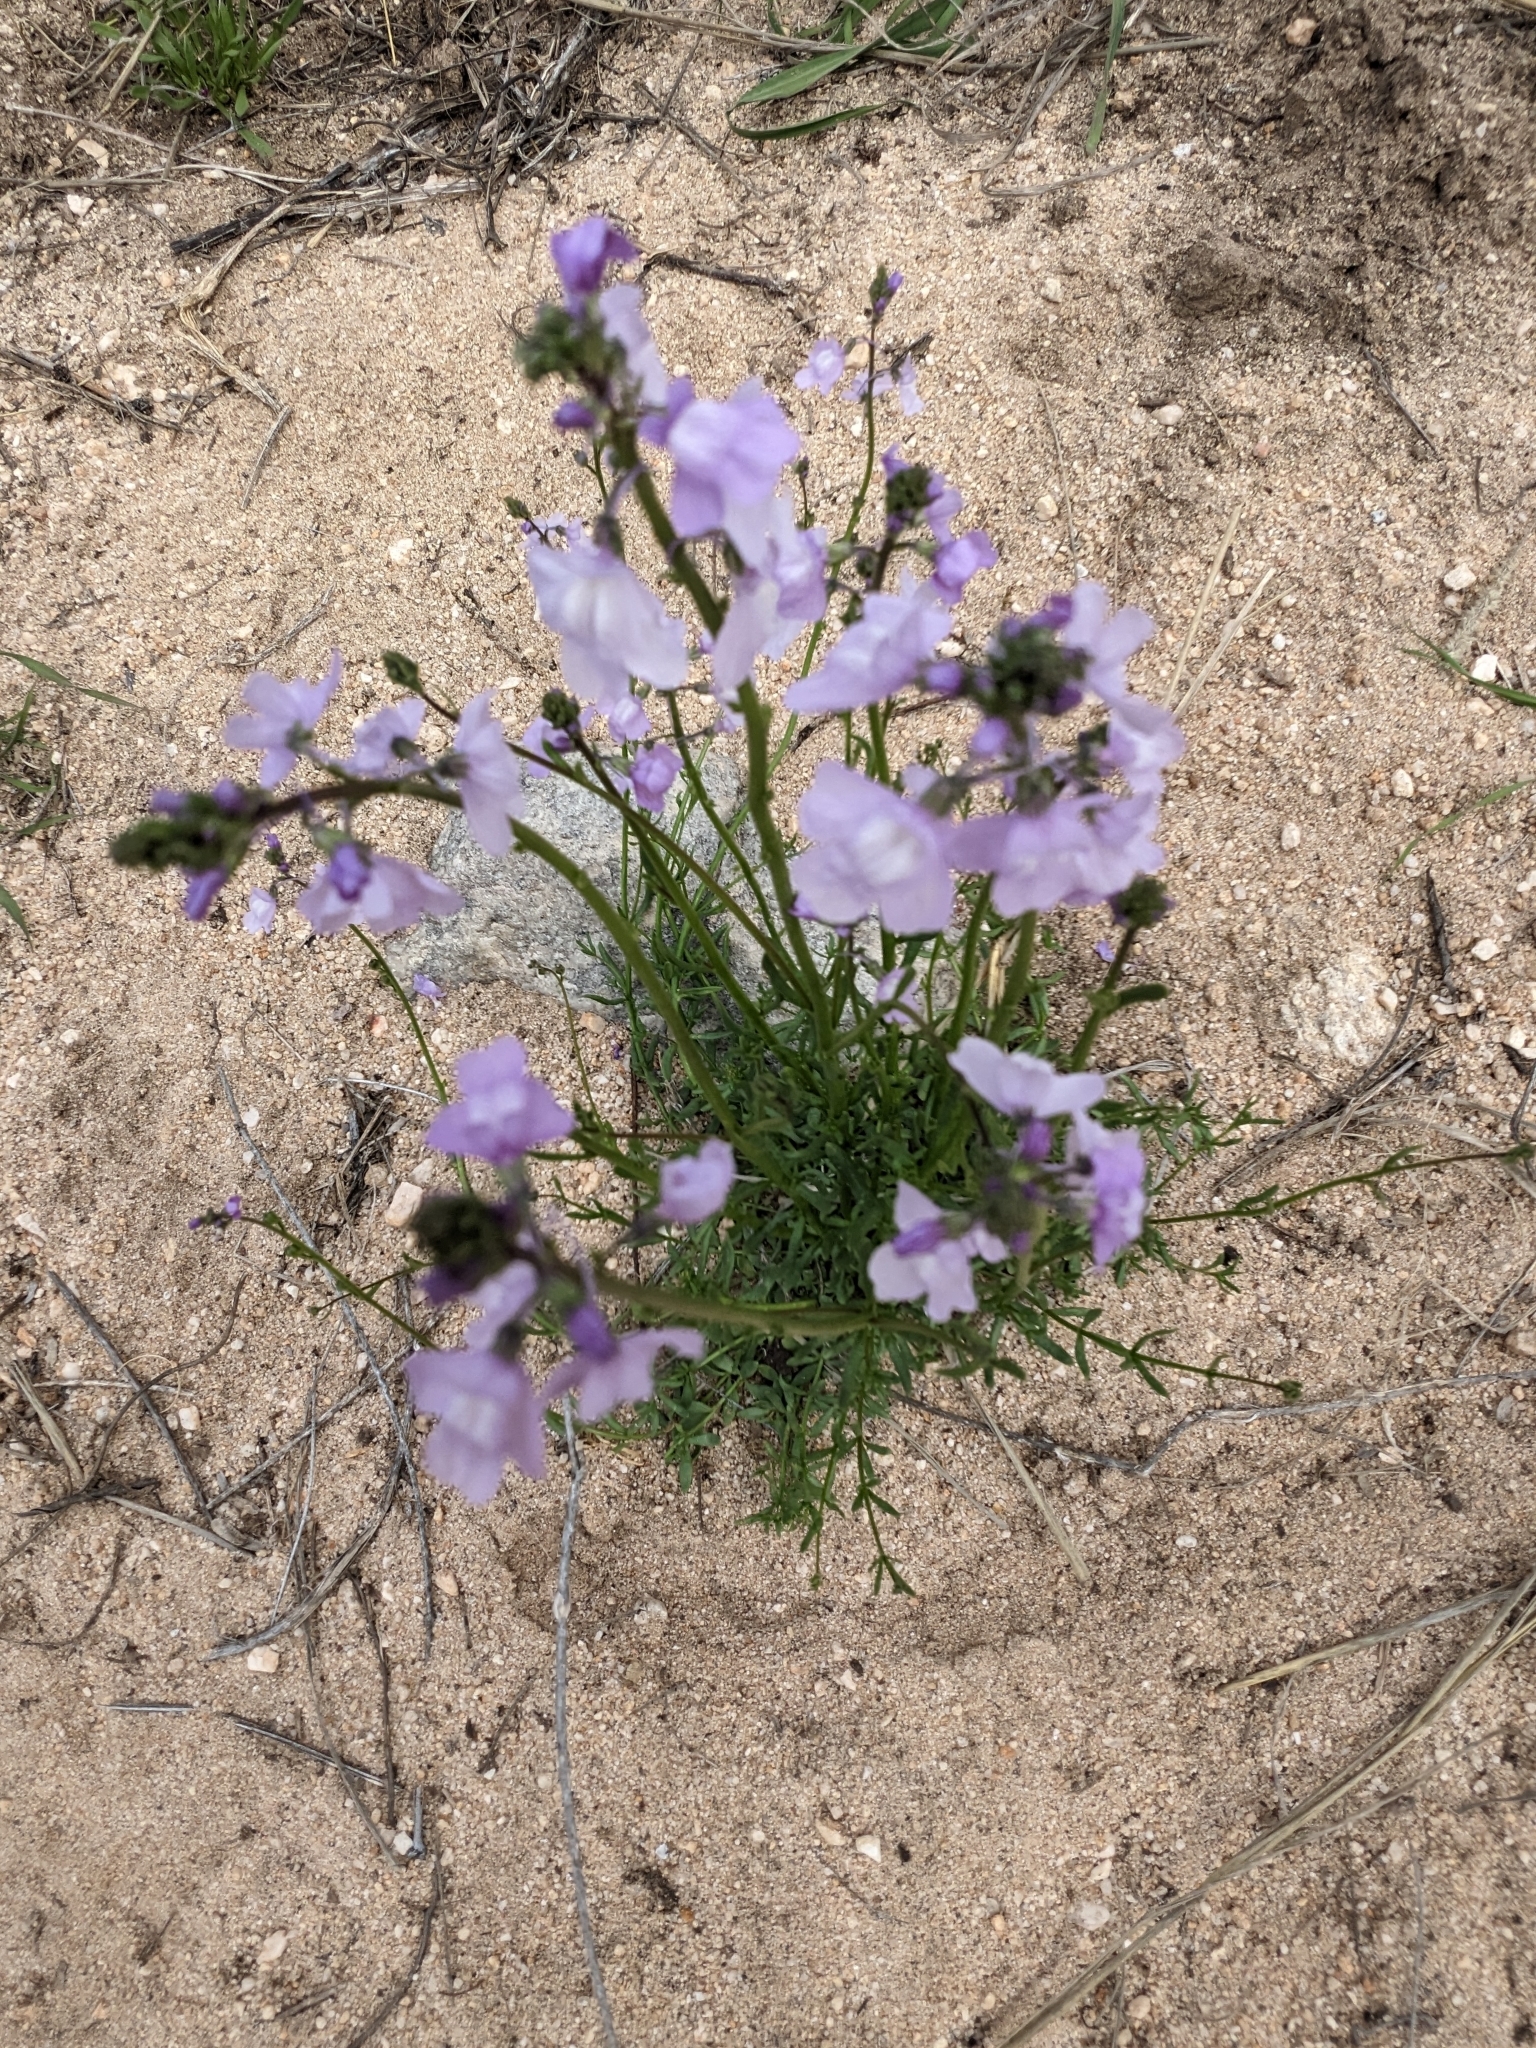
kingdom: Plantae
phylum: Tracheophyta
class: Magnoliopsida
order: Lamiales
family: Plantaginaceae
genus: Nuttallanthus
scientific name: Nuttallanthus texanus
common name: Texas toadflax
